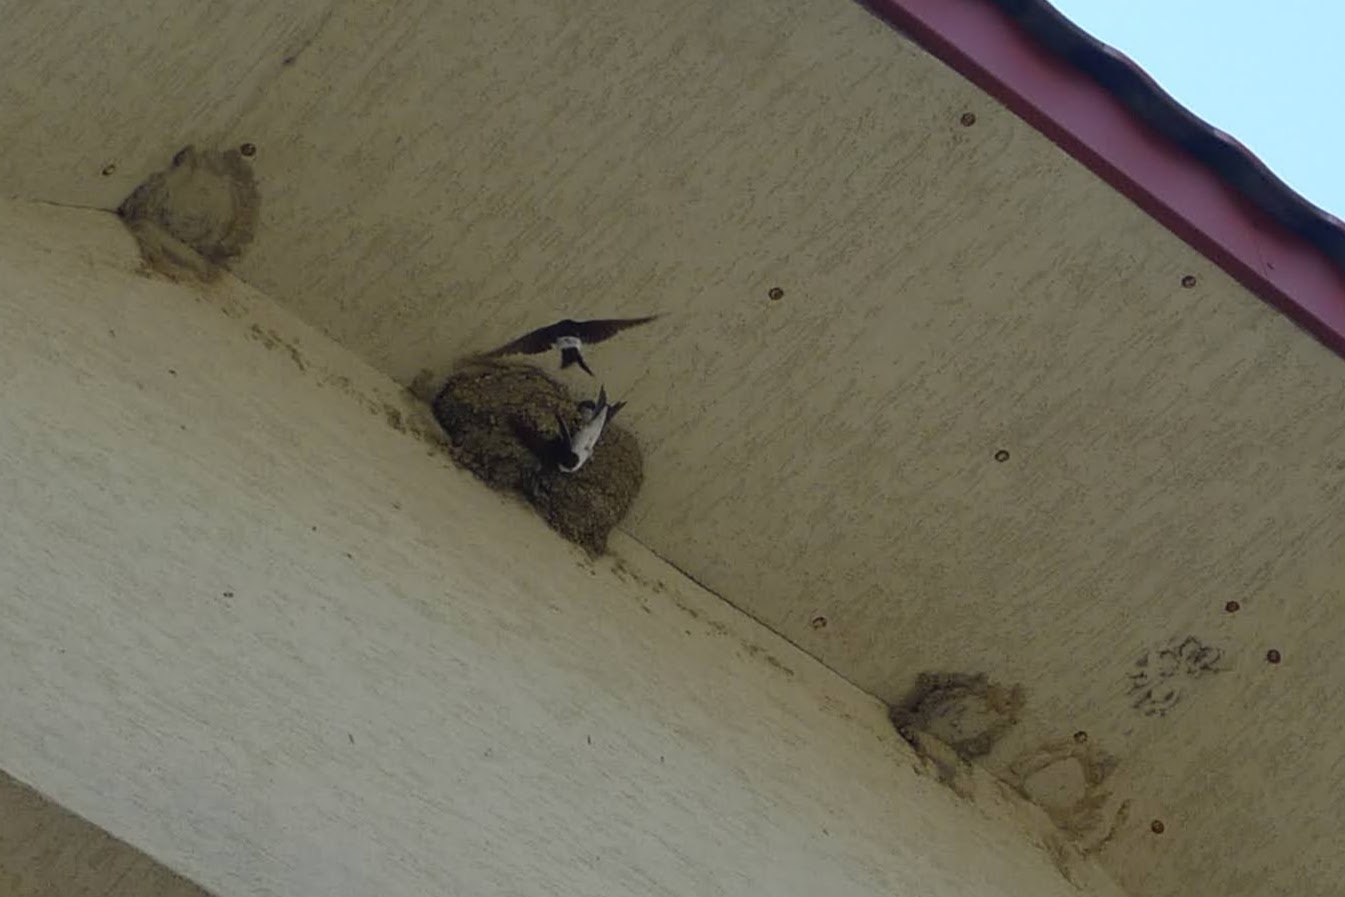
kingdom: Animalia
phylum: Chordata
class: Aves
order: Passeriformes
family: Hirundinidae
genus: Delichon
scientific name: Delichon urbicum
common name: Common house martin
